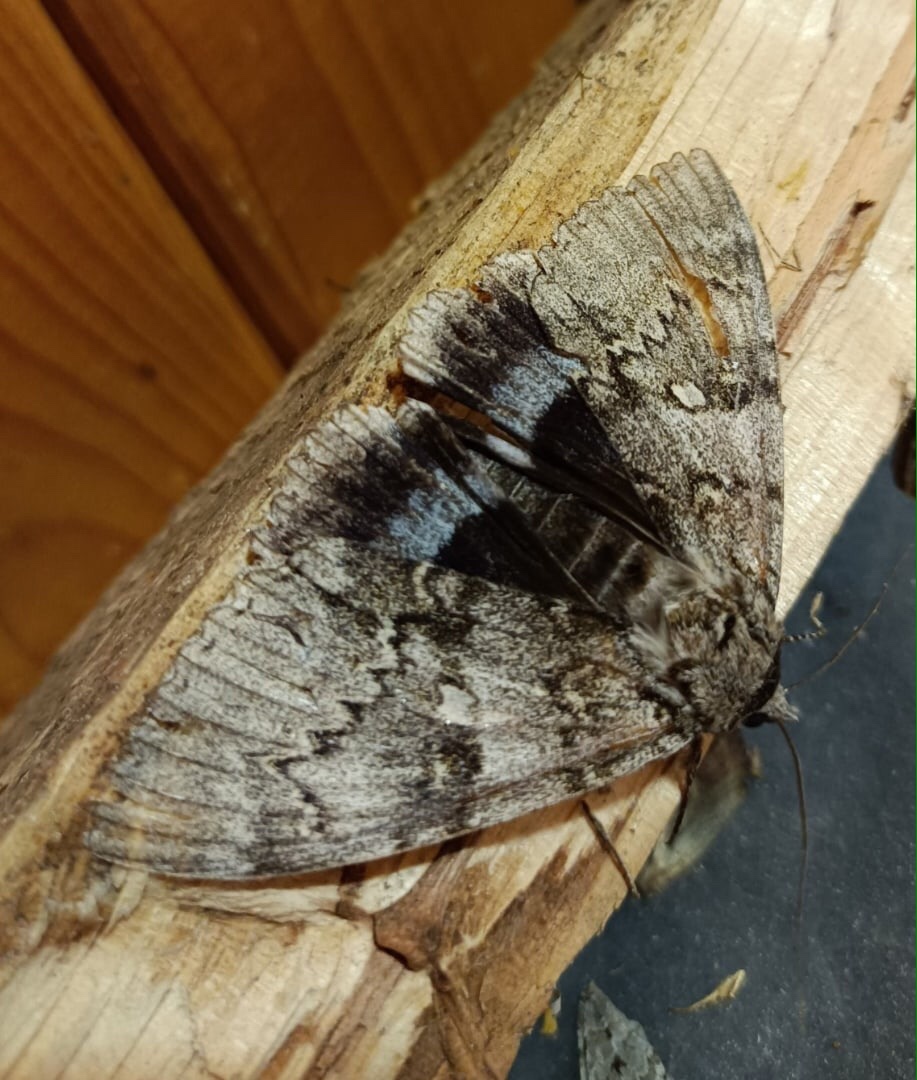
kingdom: Animalia
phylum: Arthropoda
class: Insecta
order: Lepidoptera
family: Erebidae
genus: Catocala
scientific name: Catocala fraxini
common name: Clifden nonpareil
